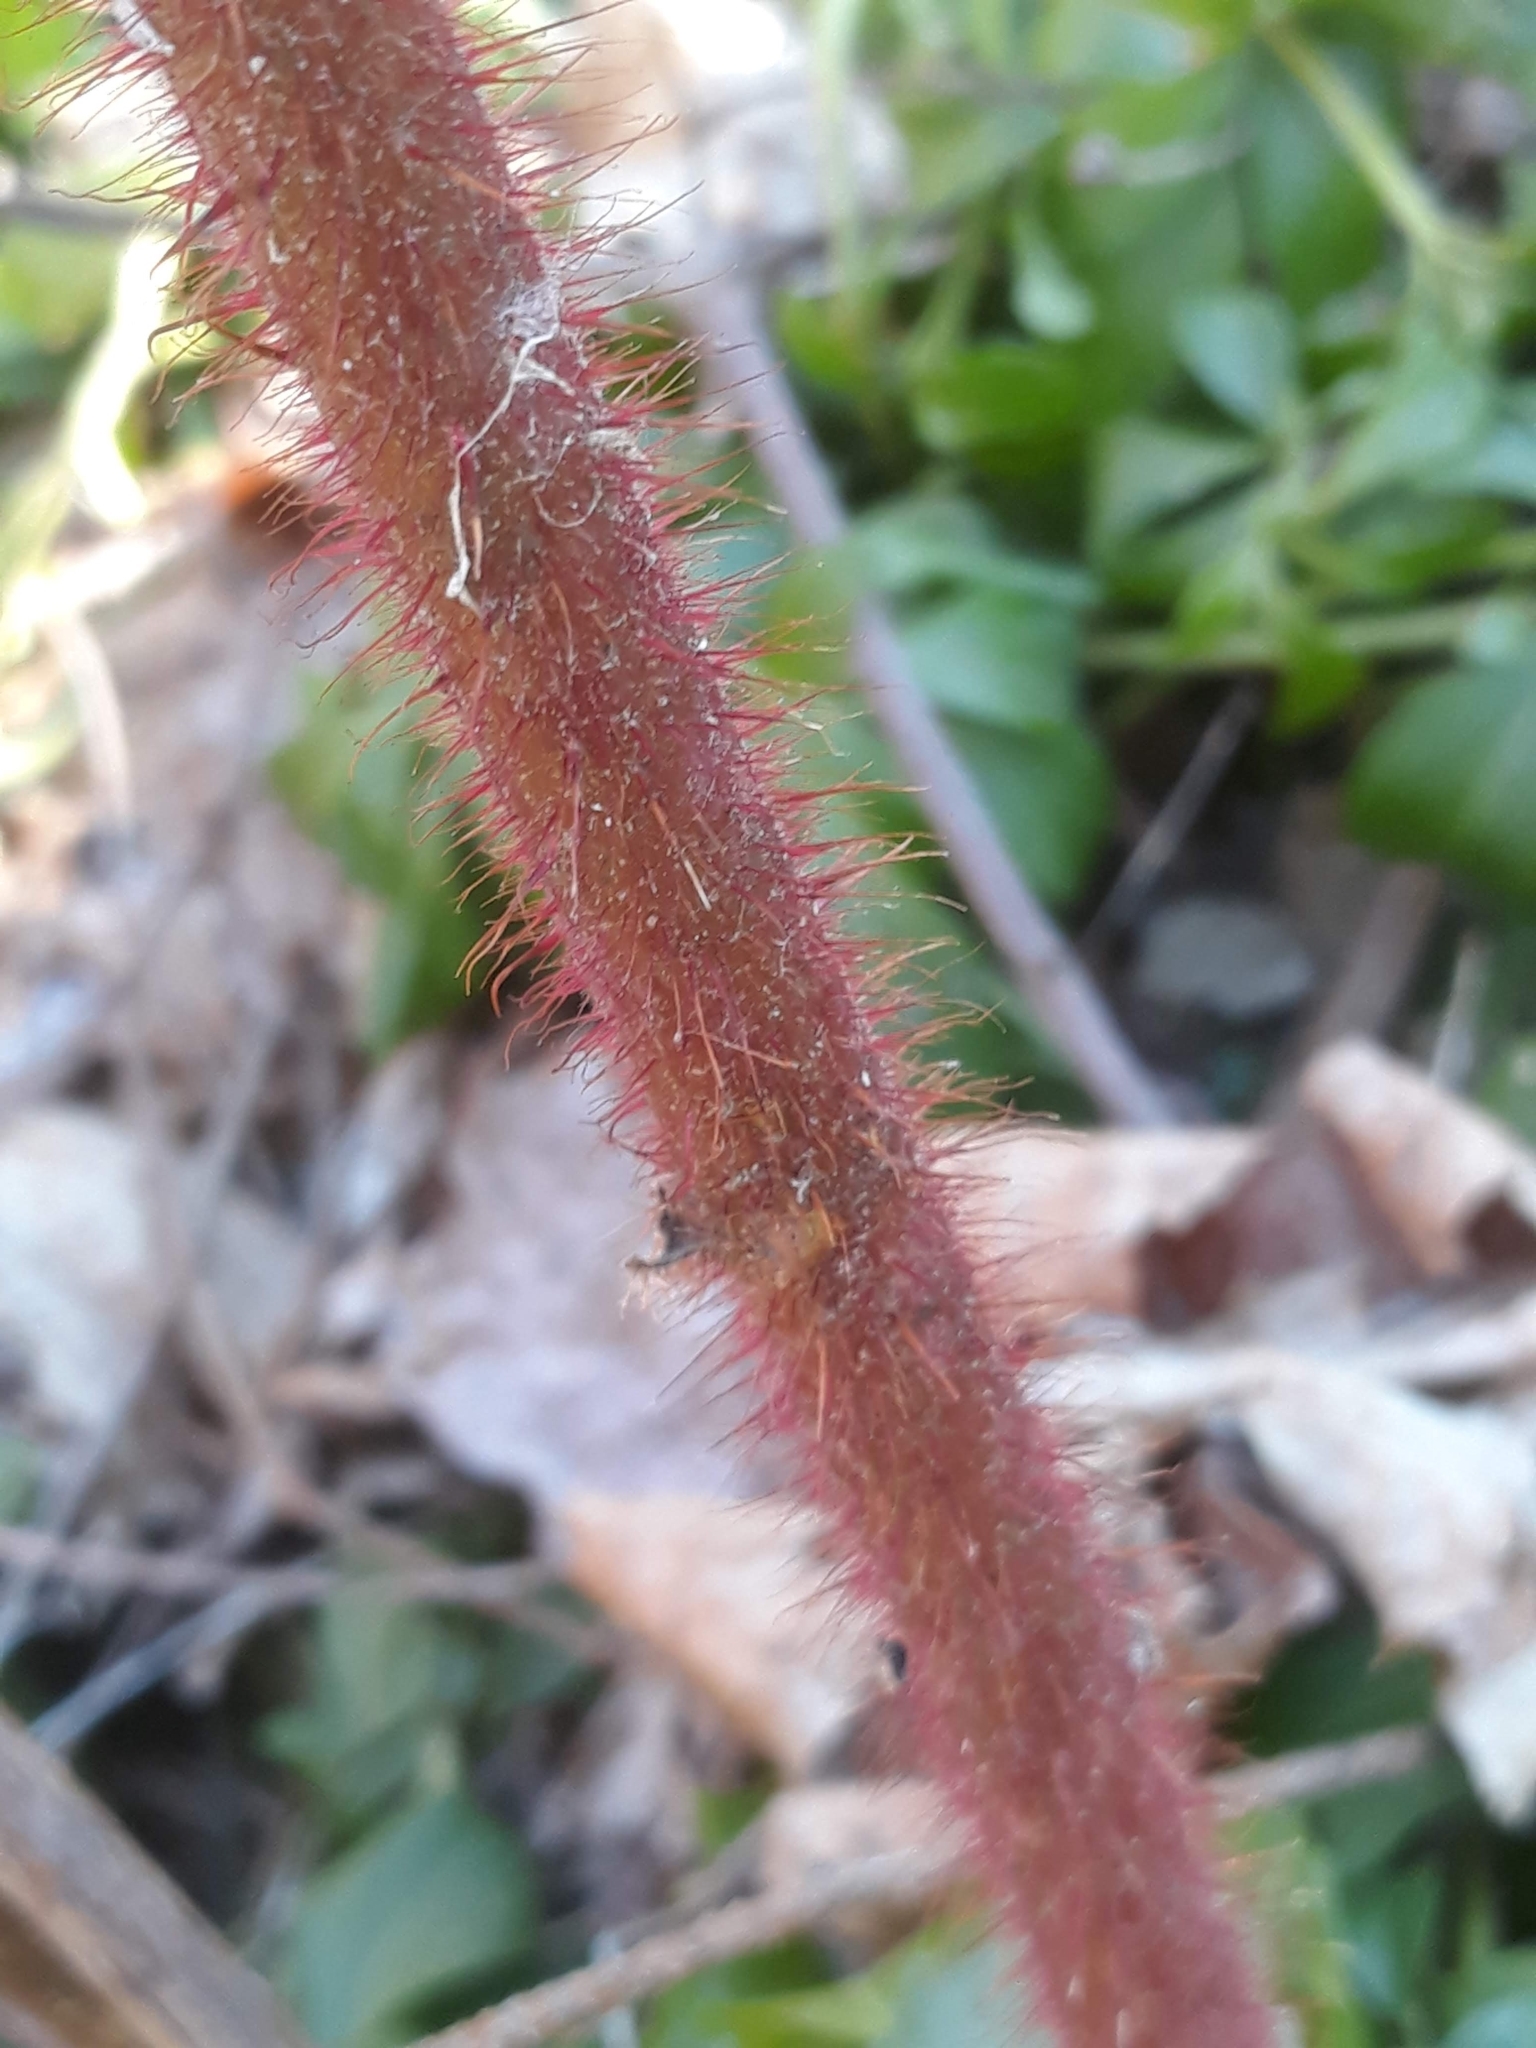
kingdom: Plantae
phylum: Tracheophyta
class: Magnoliopsida
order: Rosales
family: Rosaceae
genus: Rubus
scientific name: Rubus phoenicolasius
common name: Japanese wineberry
